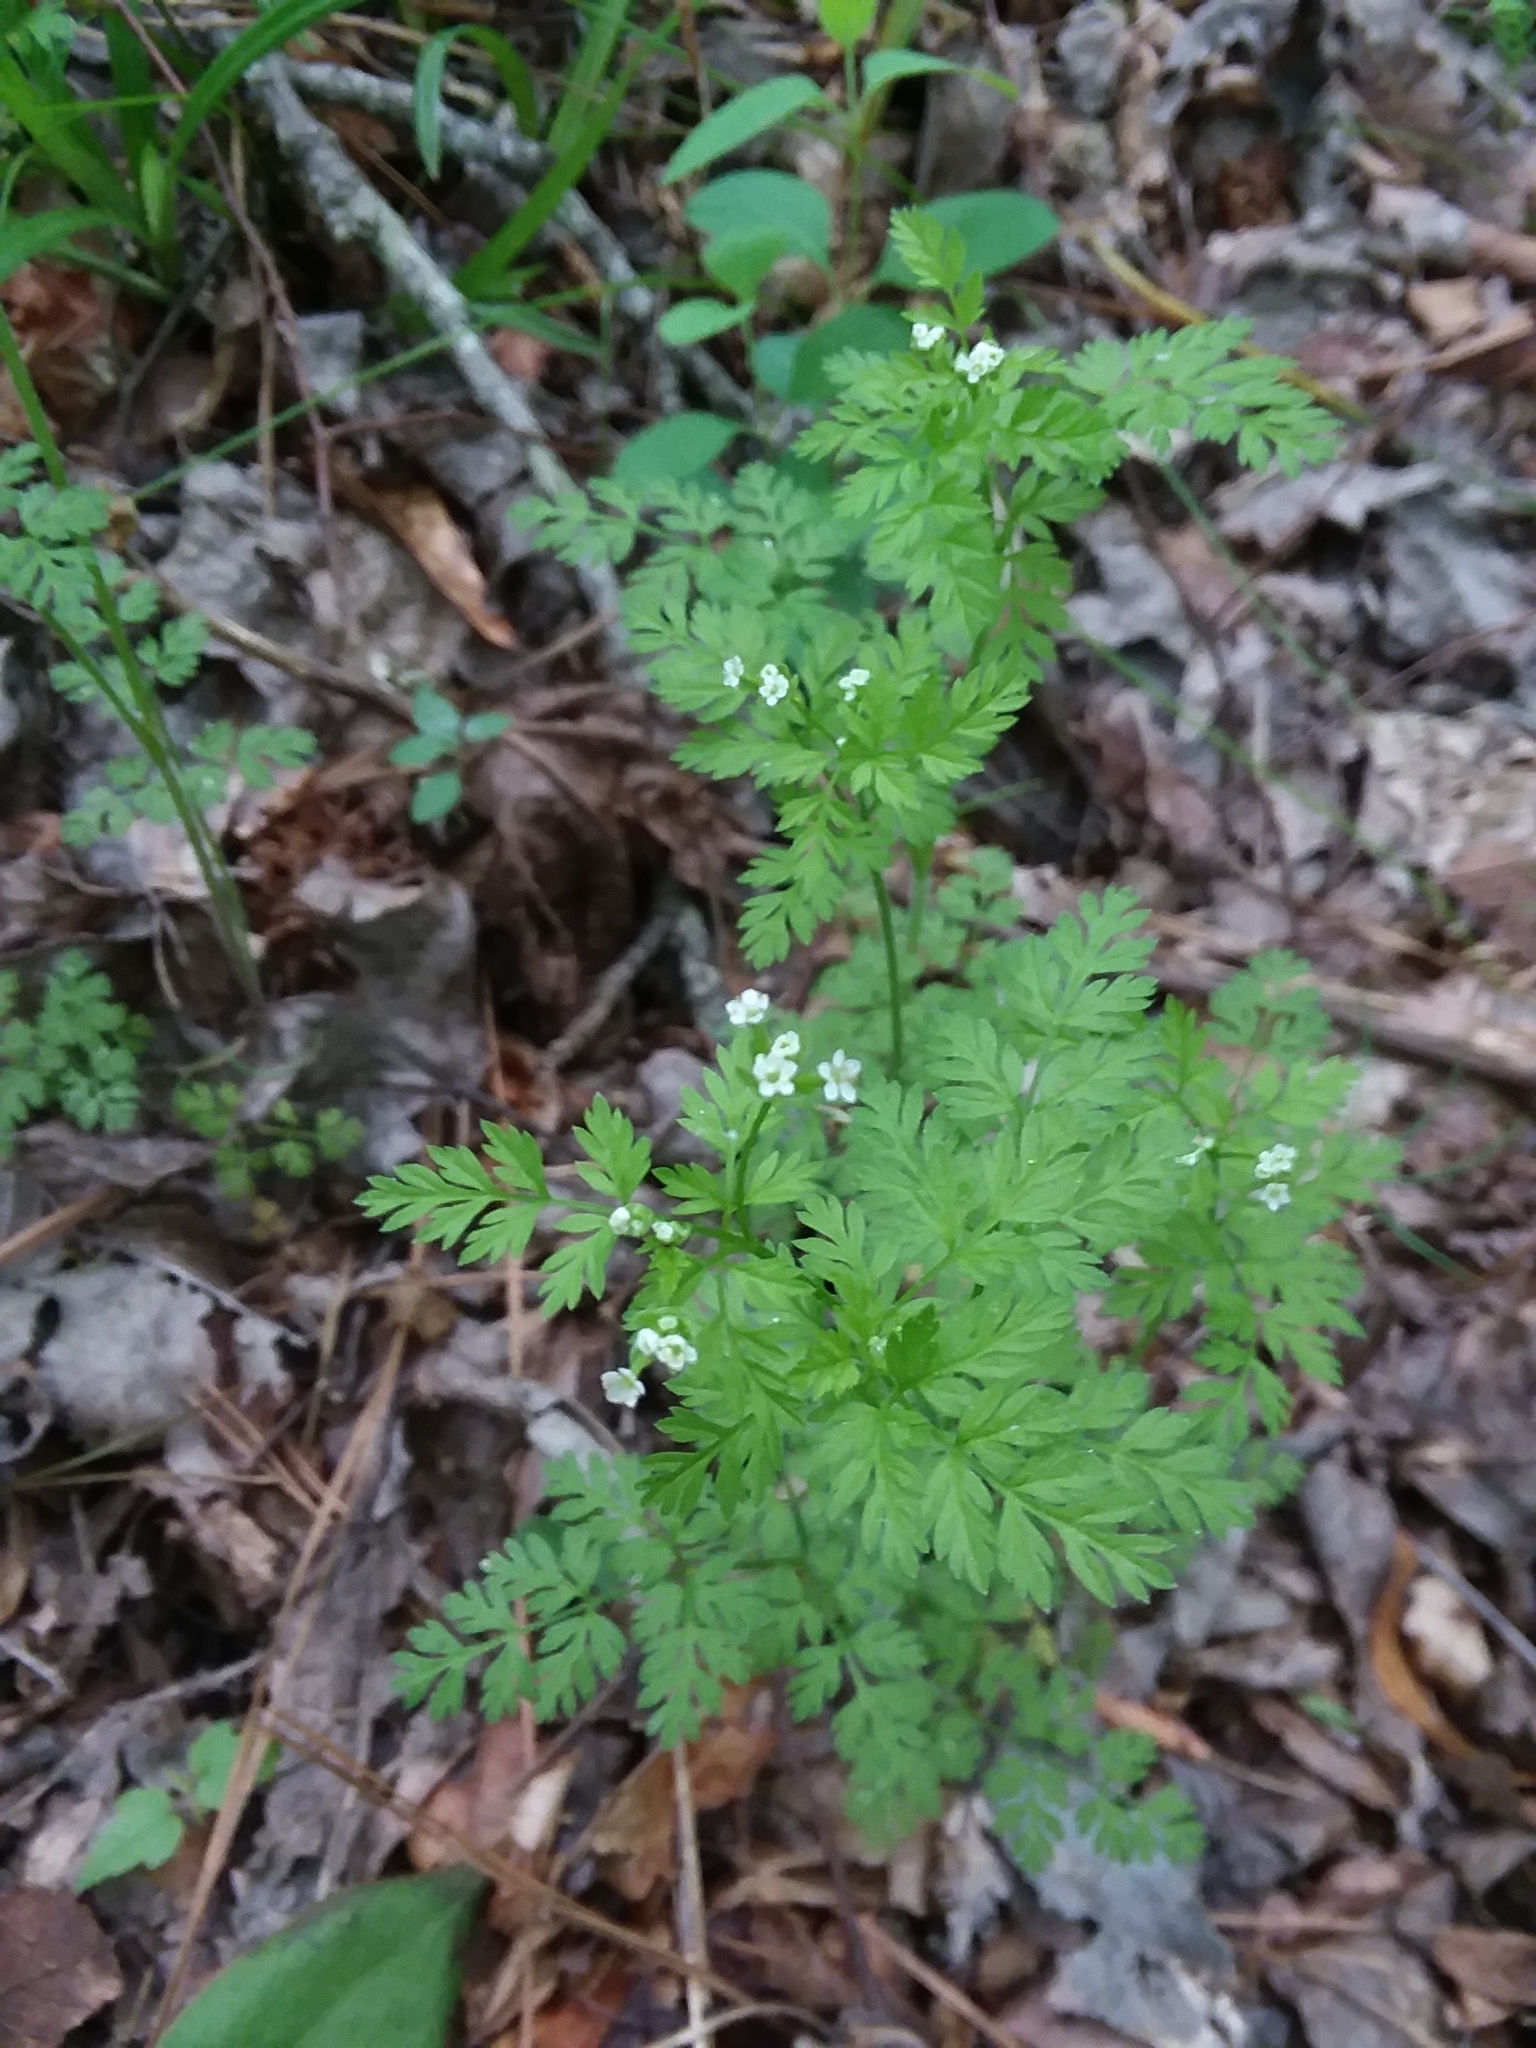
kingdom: Plantae
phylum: Tracheophyta
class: Magnoliopsida
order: Apiales
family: Apiaceae
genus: Chaerophyllum
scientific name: Chaerophyllum tainturieri
